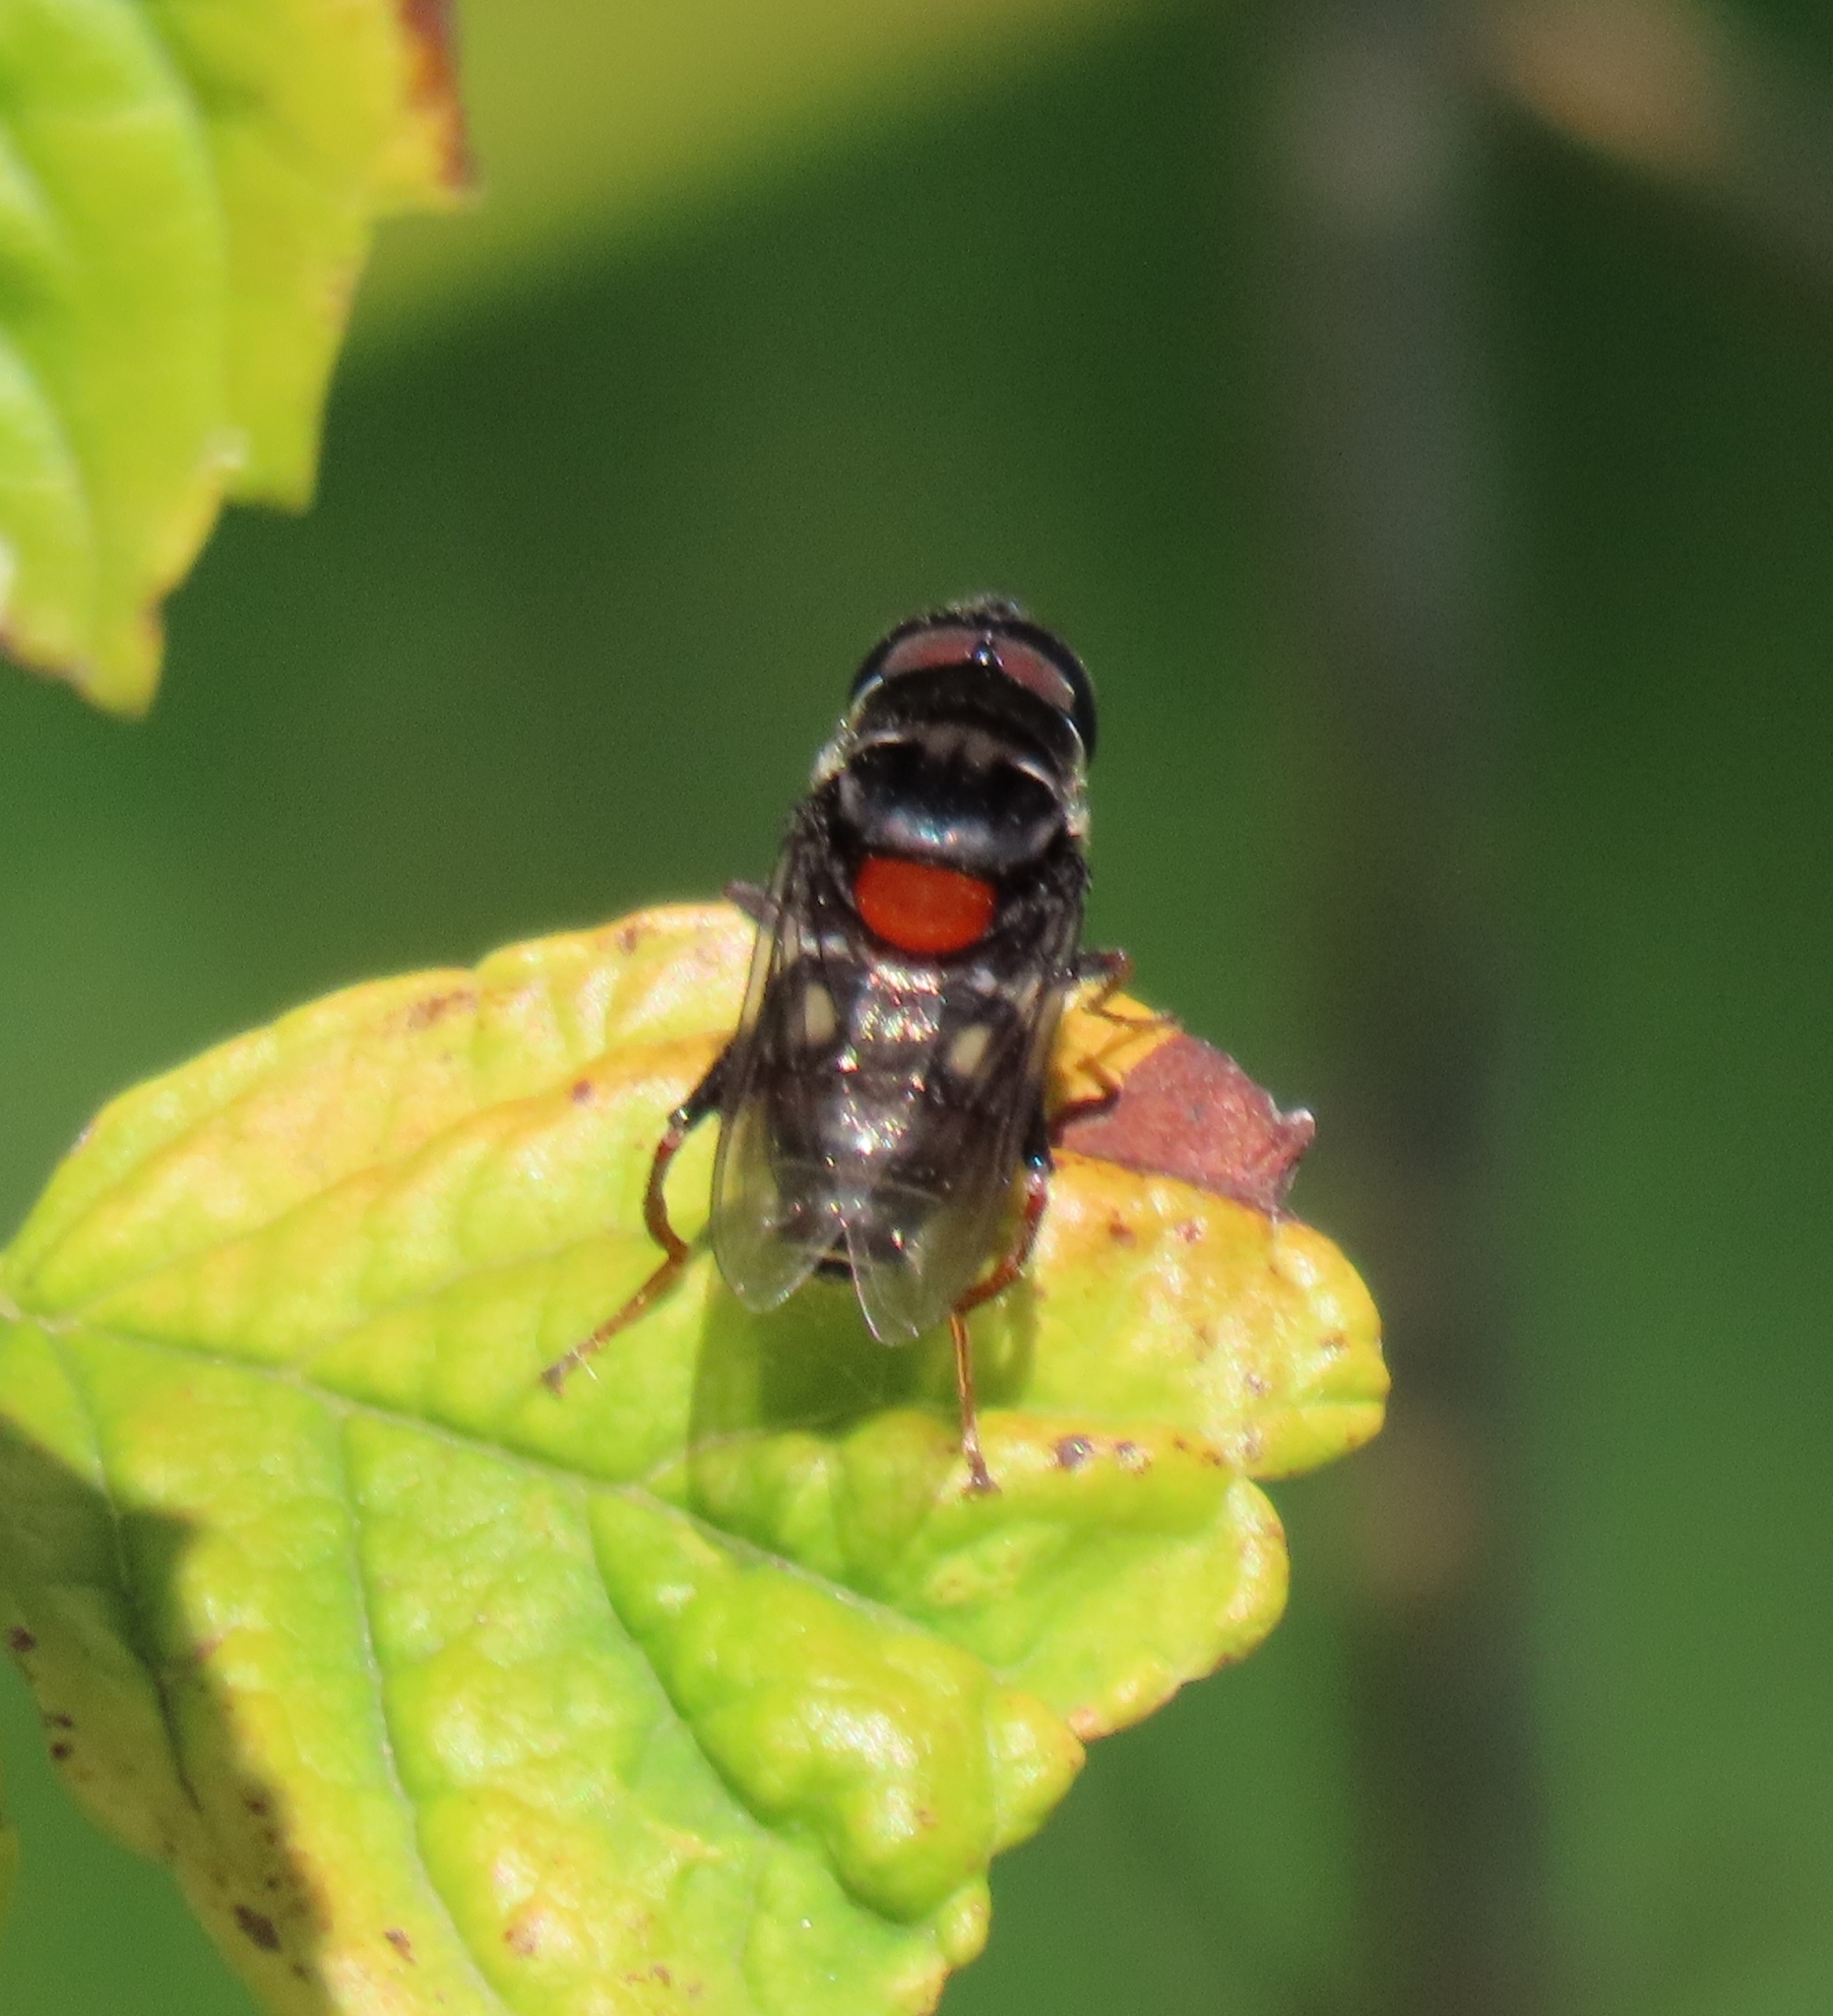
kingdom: Animalia
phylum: Arthropoda
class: Insecta
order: Diptera
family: Syrphidae
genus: Palpada
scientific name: Palpada rufoscutellata
